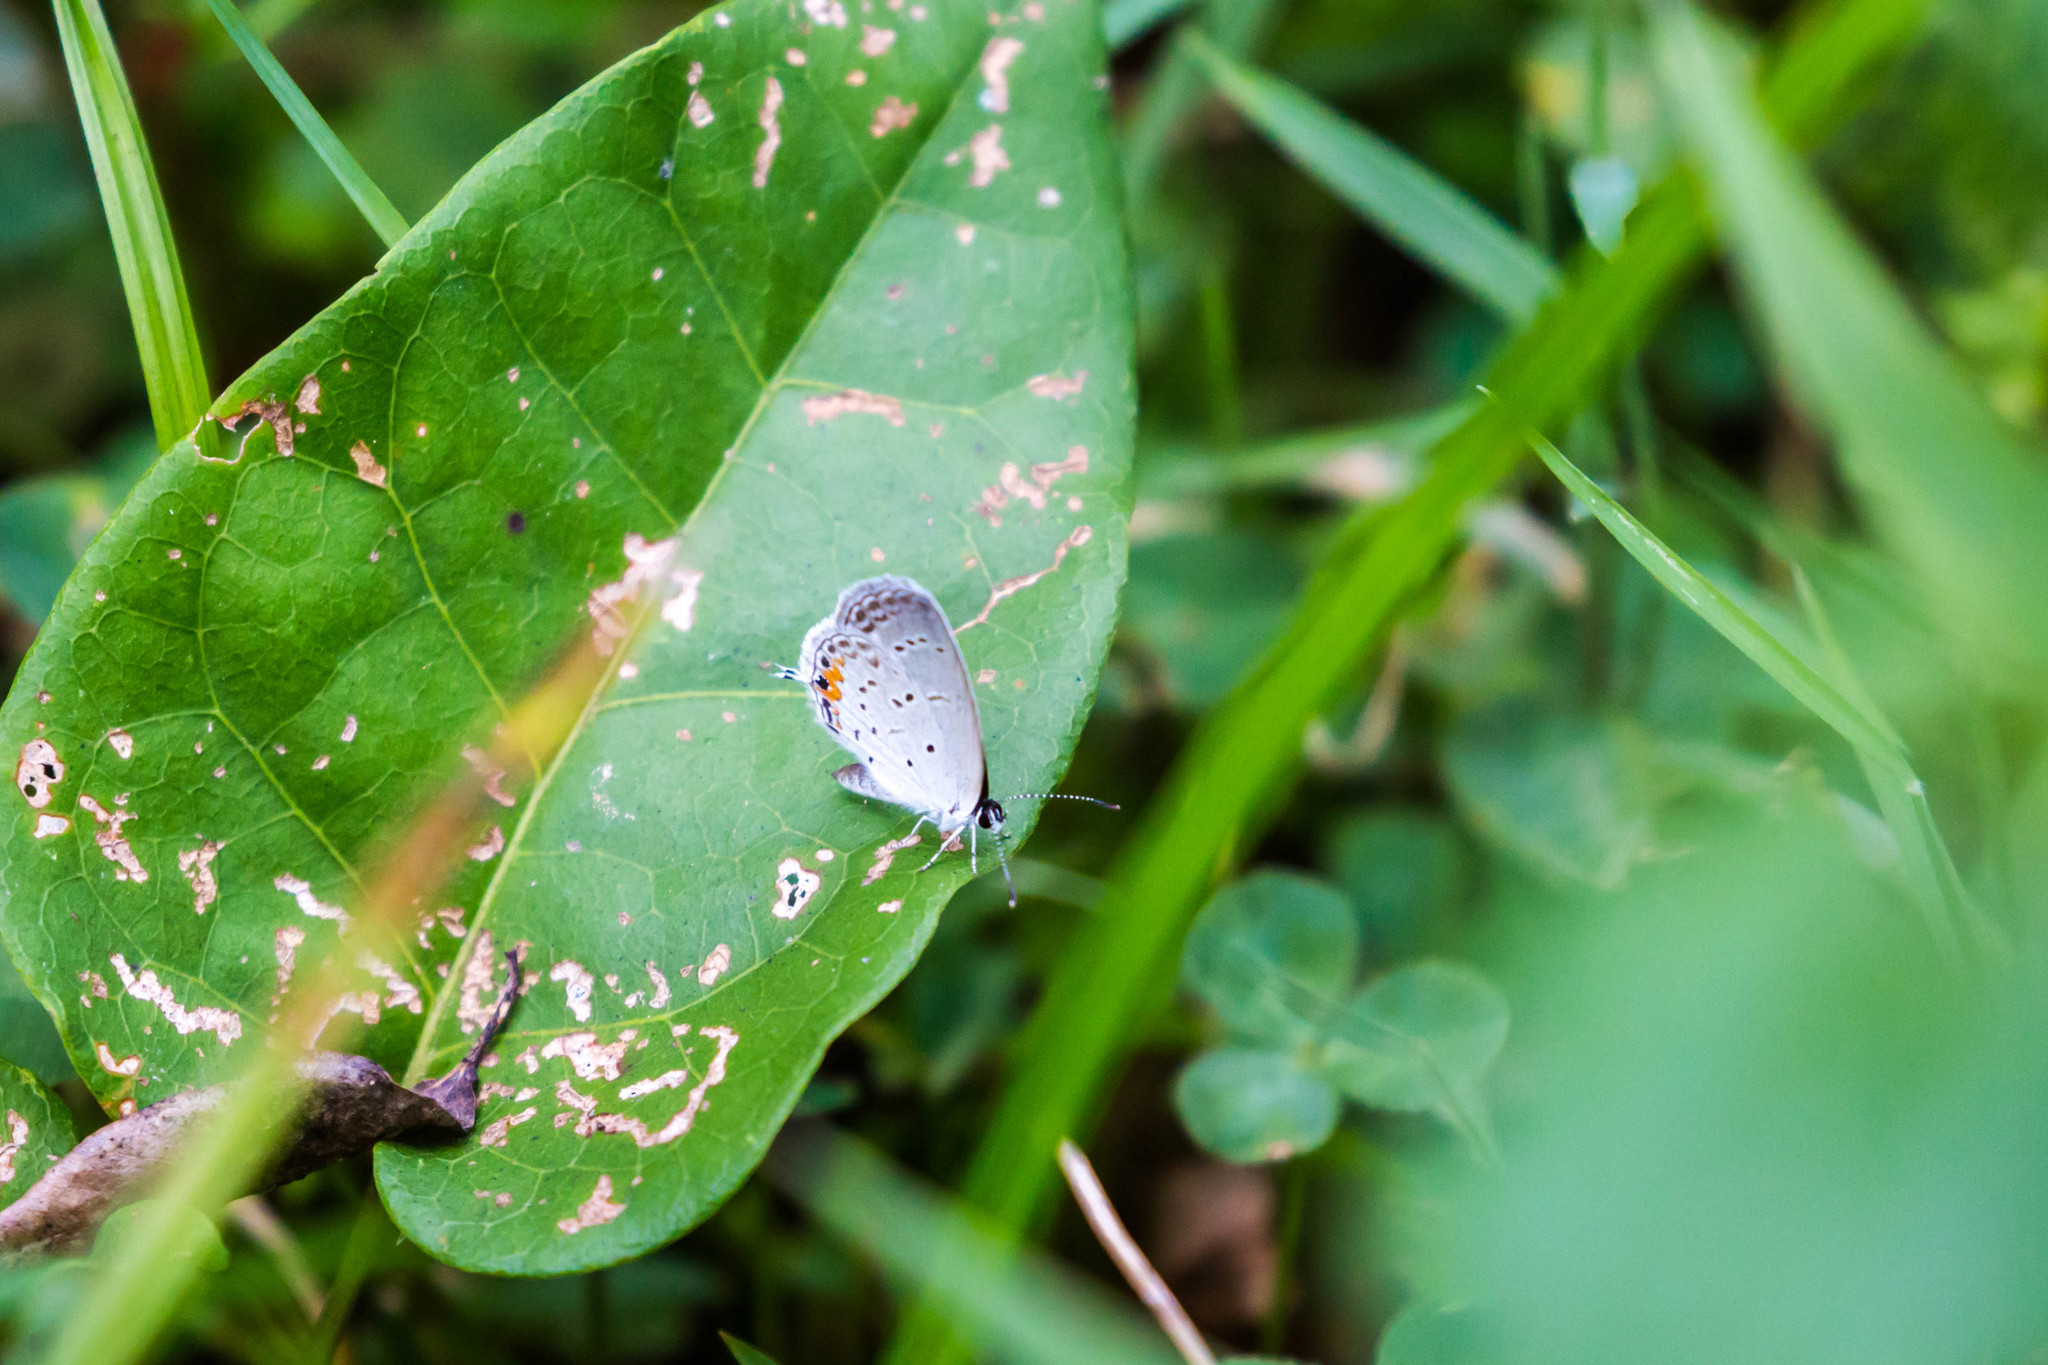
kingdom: Animalia
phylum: Arthropoda
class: Insecta
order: Lepidoptera
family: Lycaenidae
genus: Elkalyce
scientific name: Elkalyce comyntas
